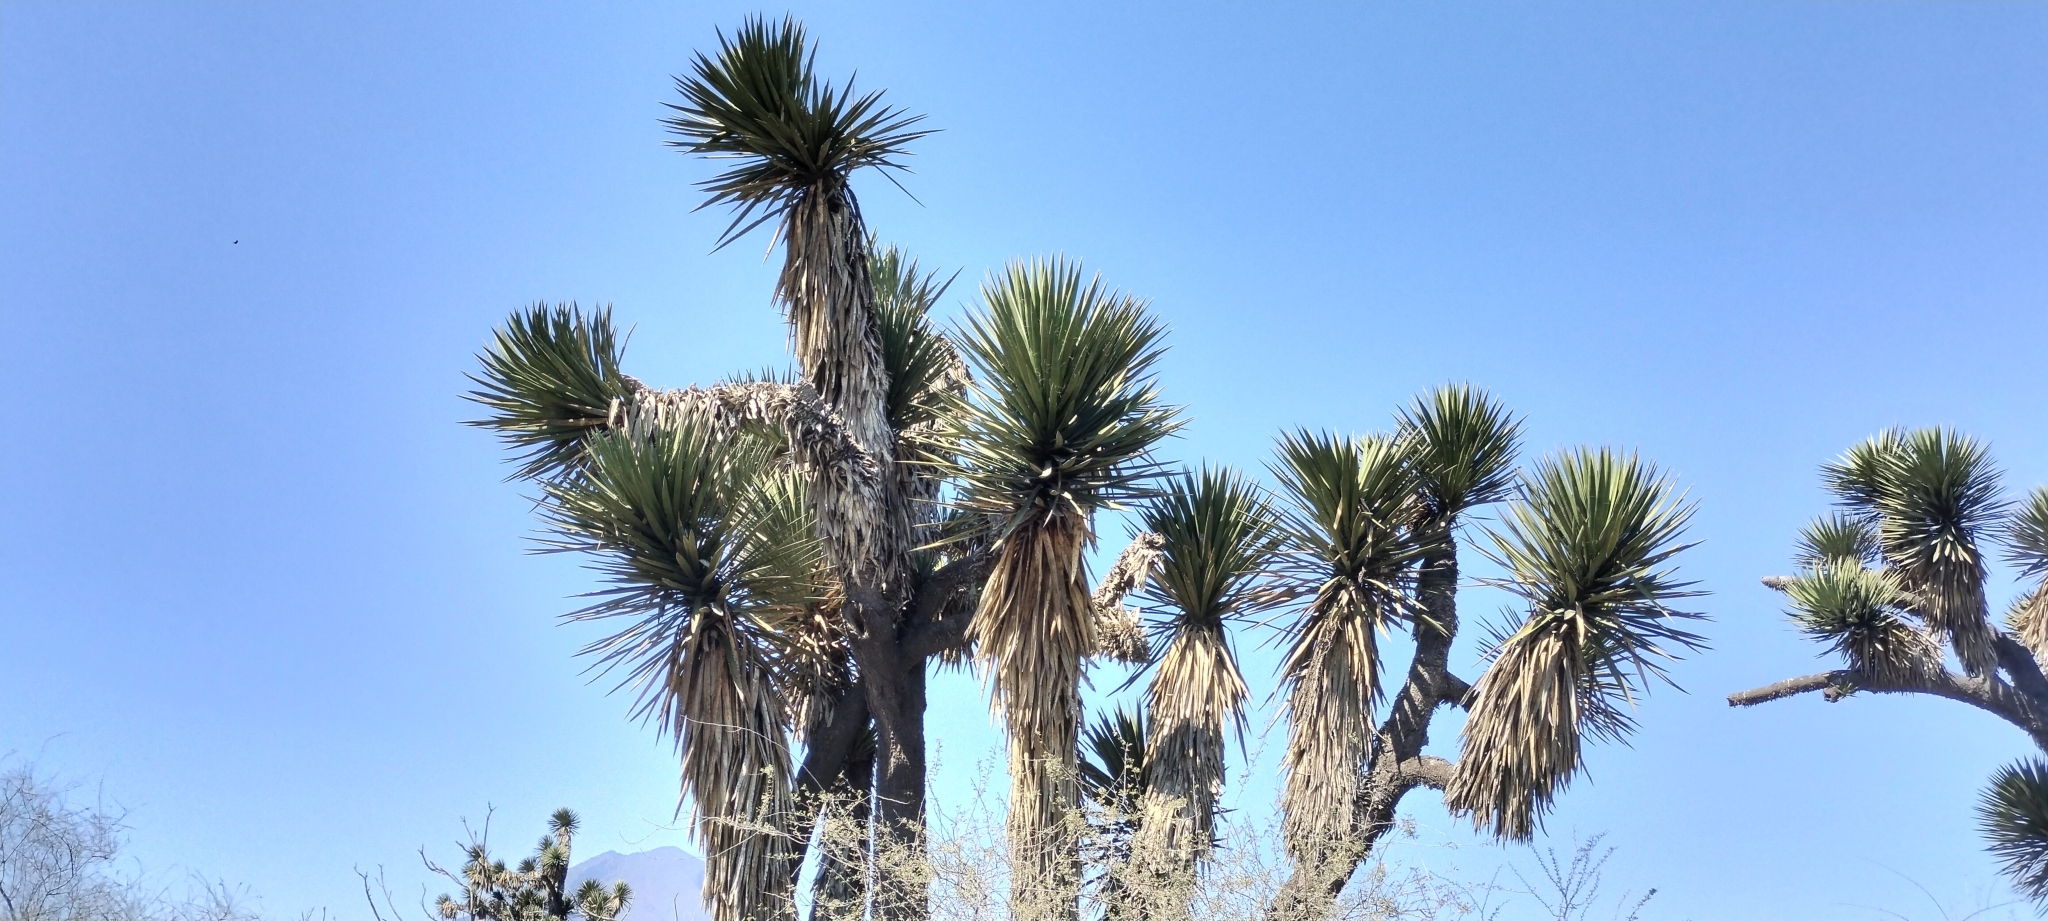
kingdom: Plantae
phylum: Tracheophyta
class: Liliopsida
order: Asparagales
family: Asparagaceae
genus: Yucca
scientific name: Yucca filifera
